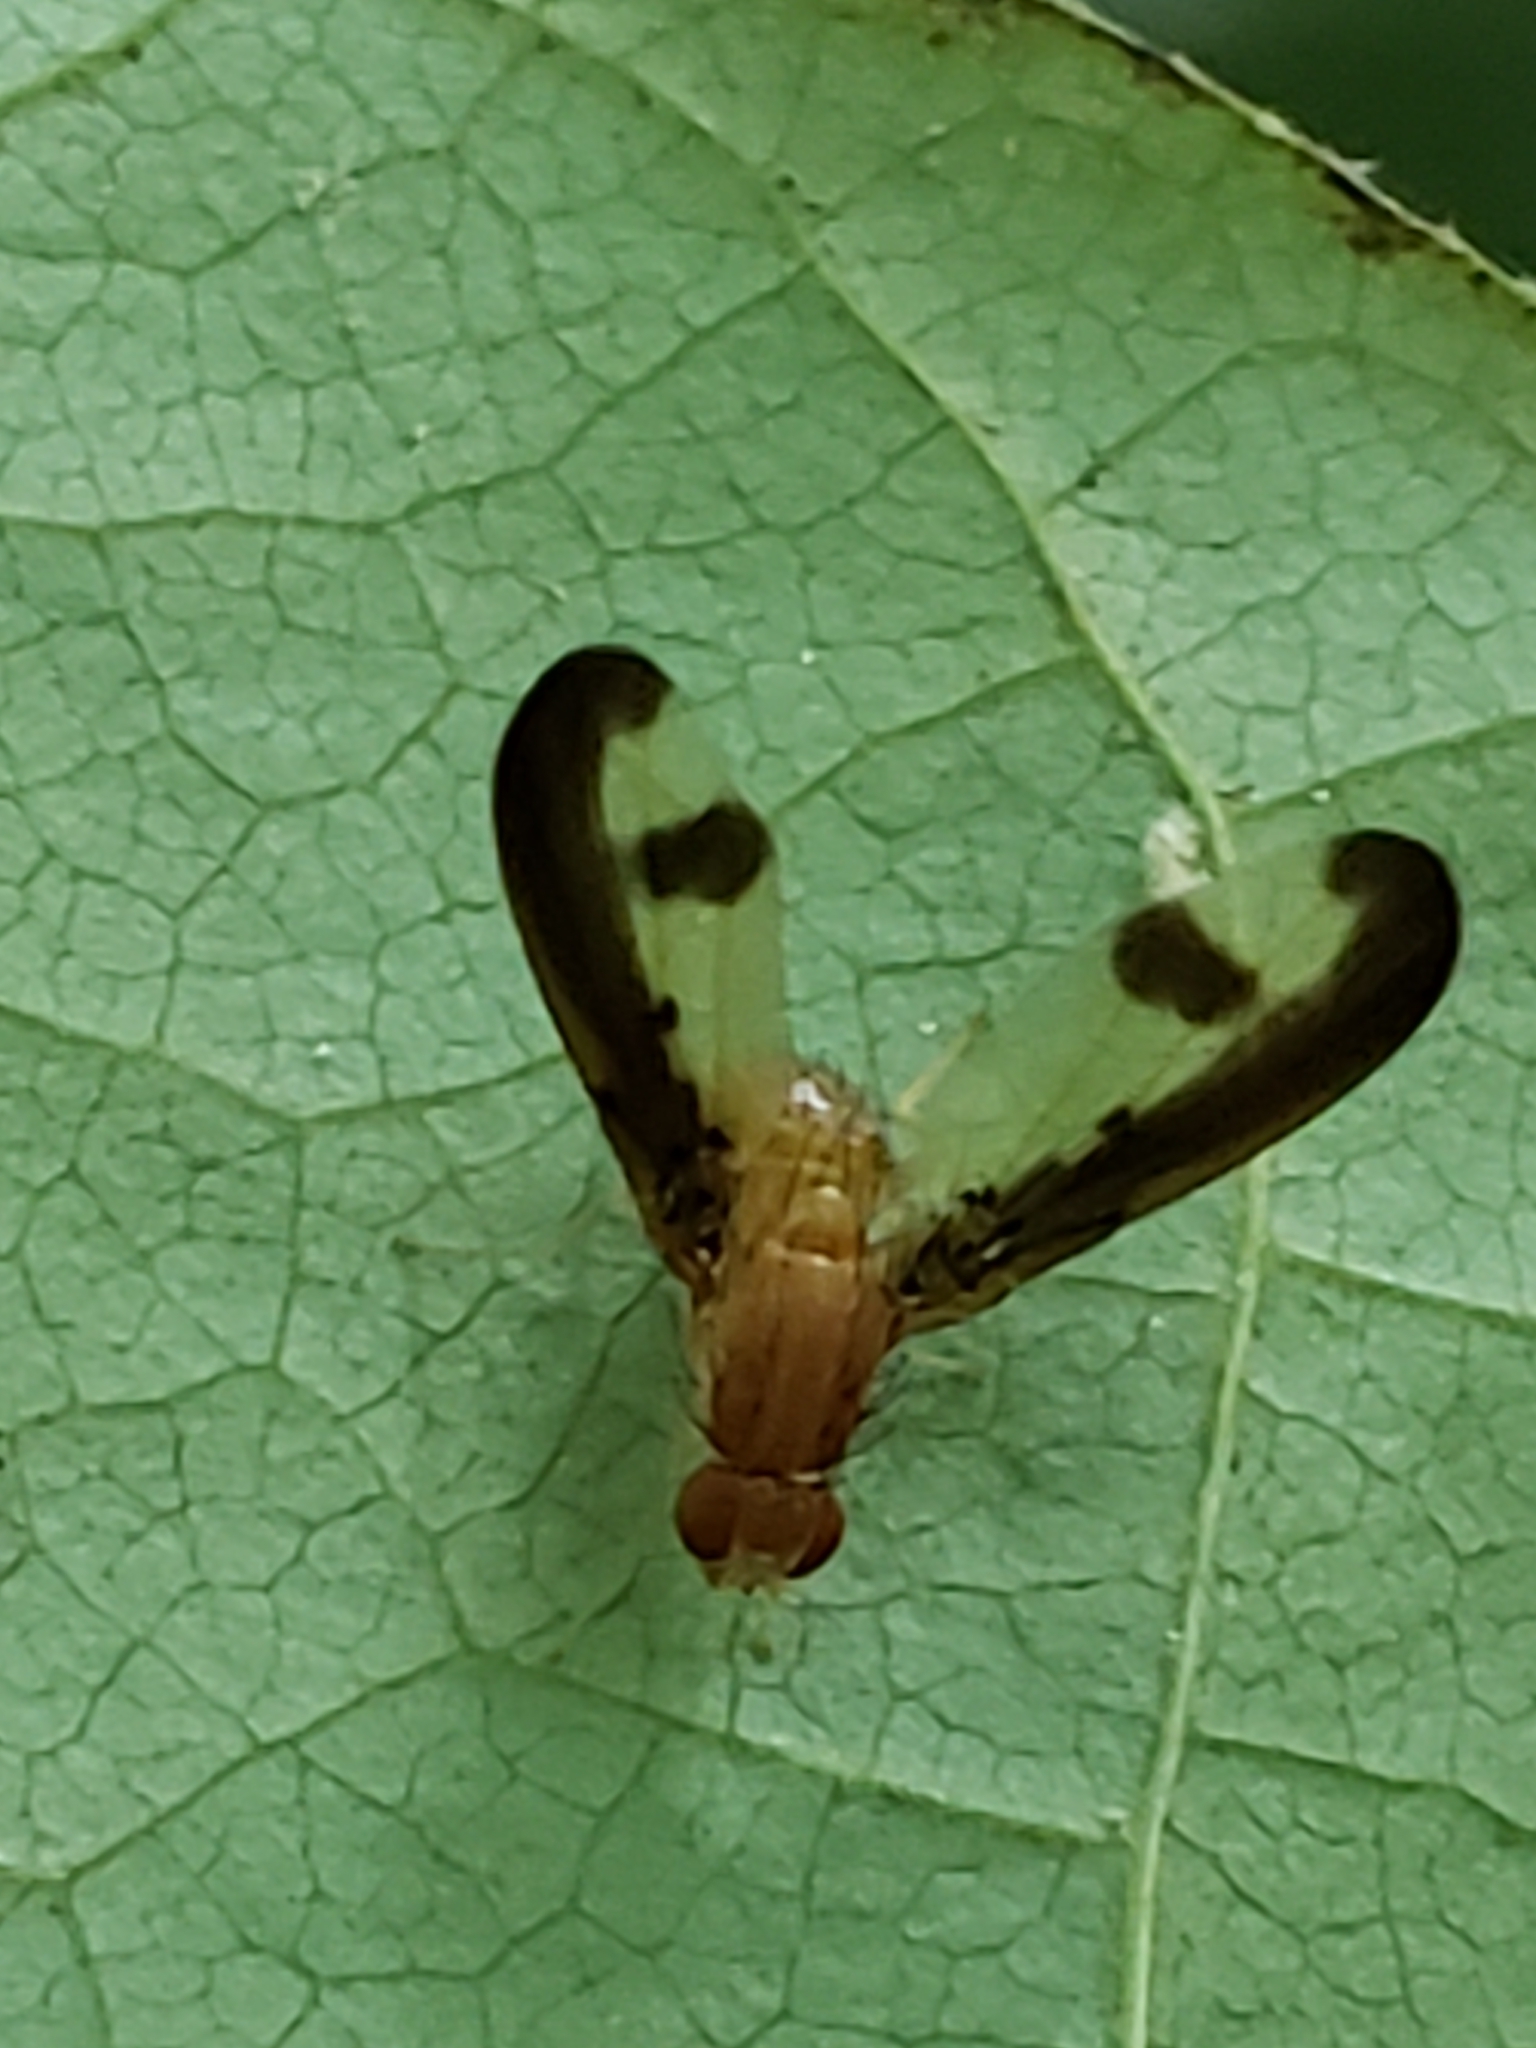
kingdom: Animalia
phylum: Arthropoda
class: Insecta
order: Diptera
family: Pallopteridae
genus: Toxonevra
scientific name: Toxonevra superba
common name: Antlered flutter fly
